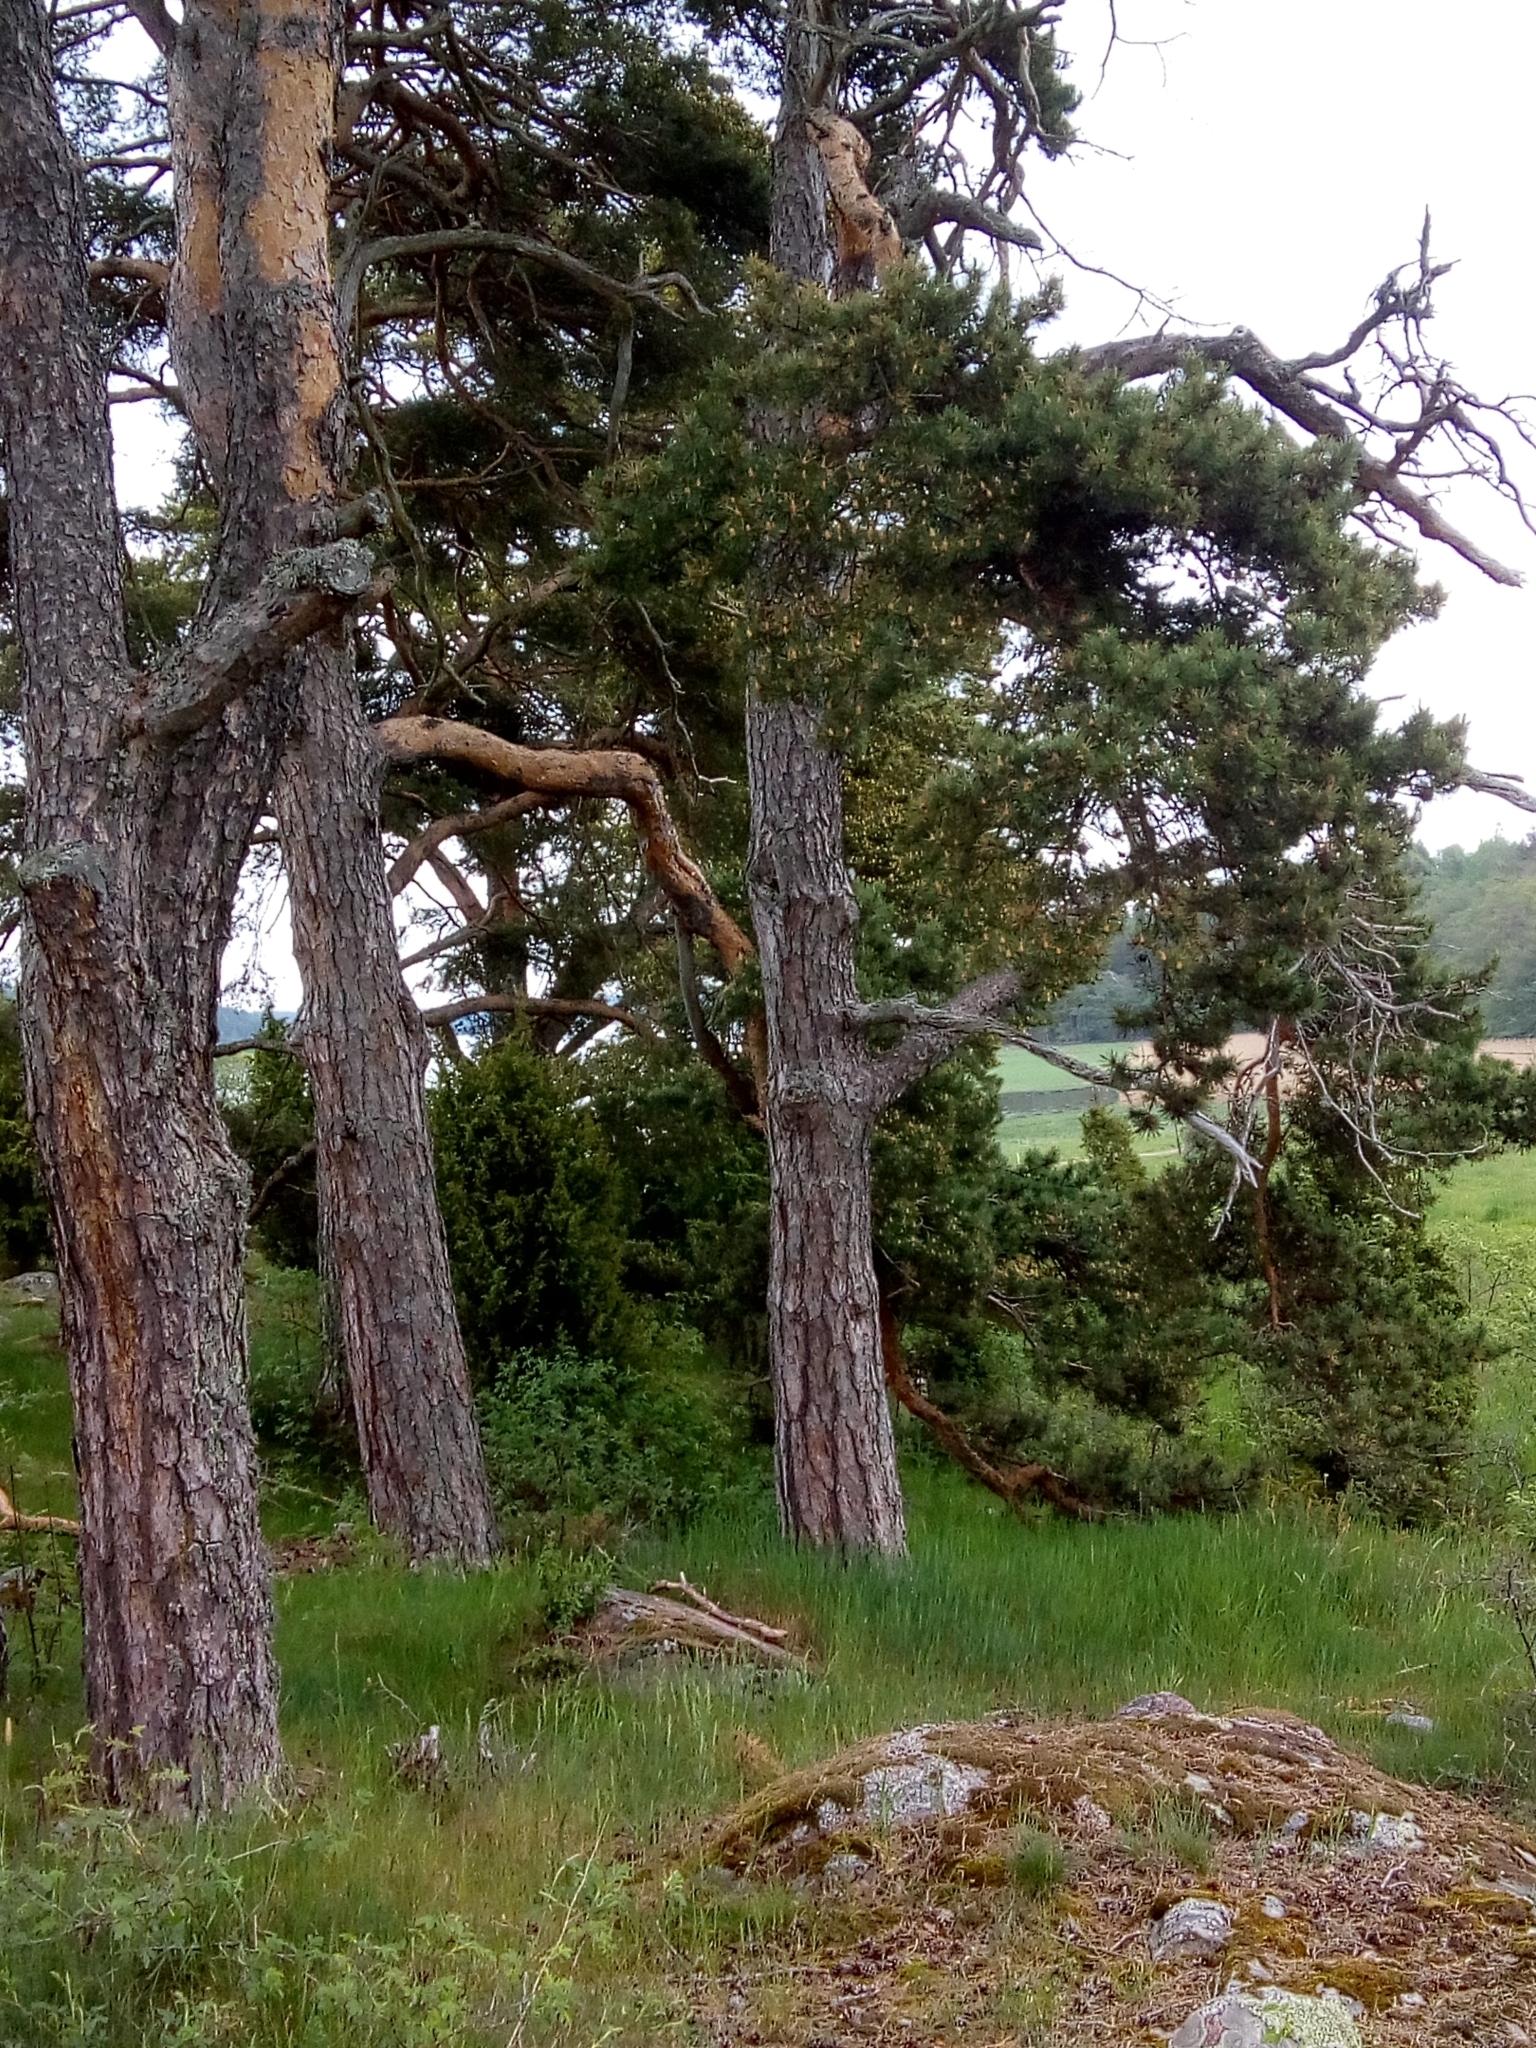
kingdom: Plantae
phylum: Tracheophyta
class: Pinopsida
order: Pinales
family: Pinaceae
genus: Pinus
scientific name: Pinus sylvestris
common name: Scots pine
